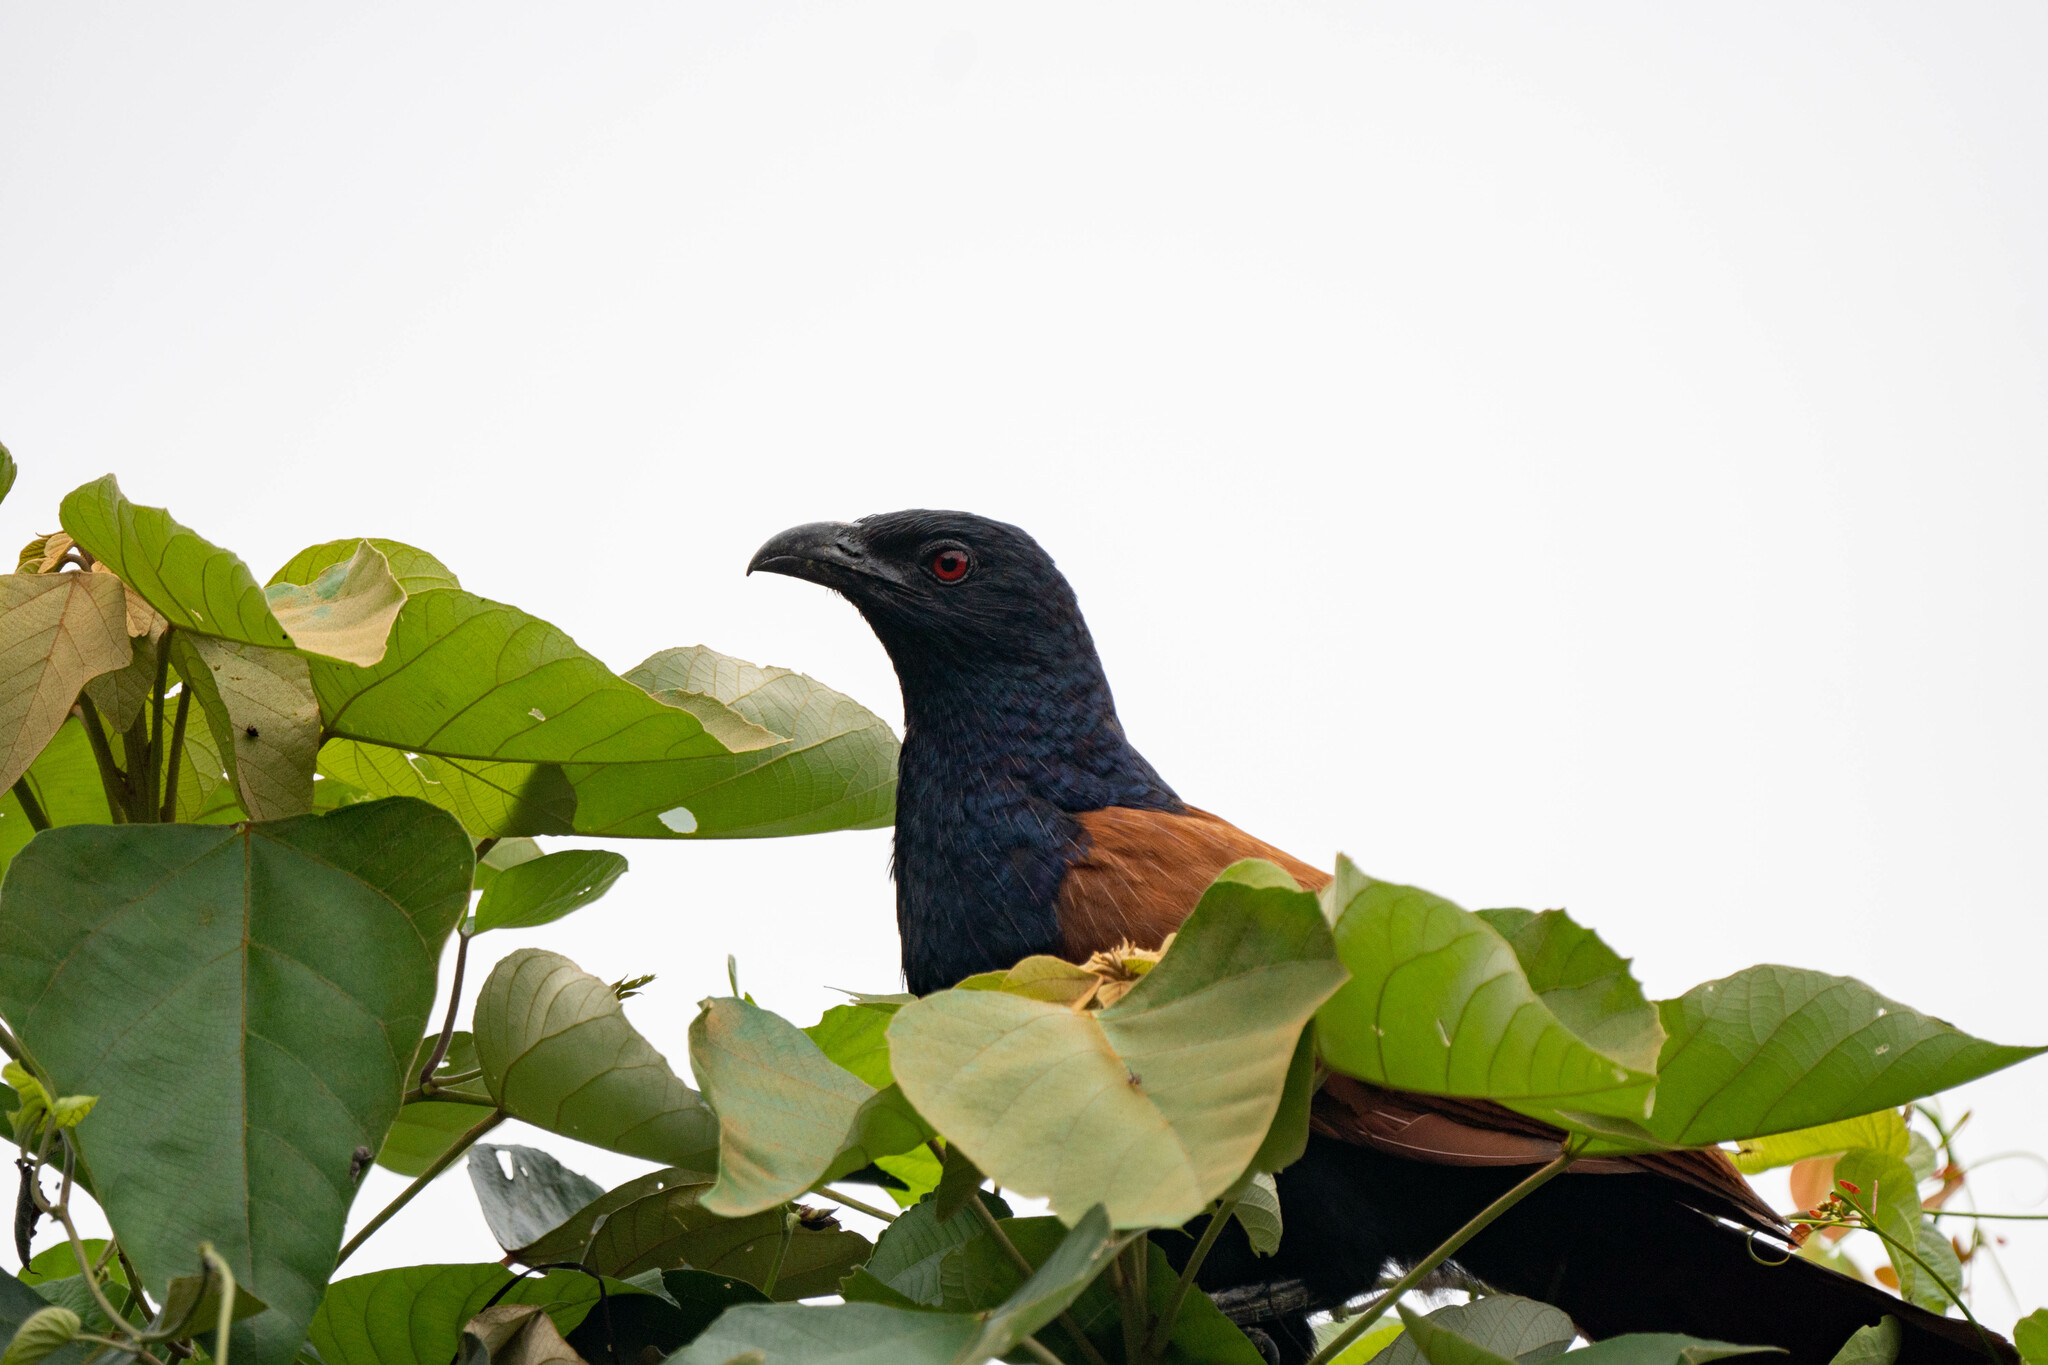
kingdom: Animalia
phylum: Chordata
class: Aves
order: Cuculiformes
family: Cuculidae
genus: Centropus
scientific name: Centropus sinensis
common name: Greater coucal
